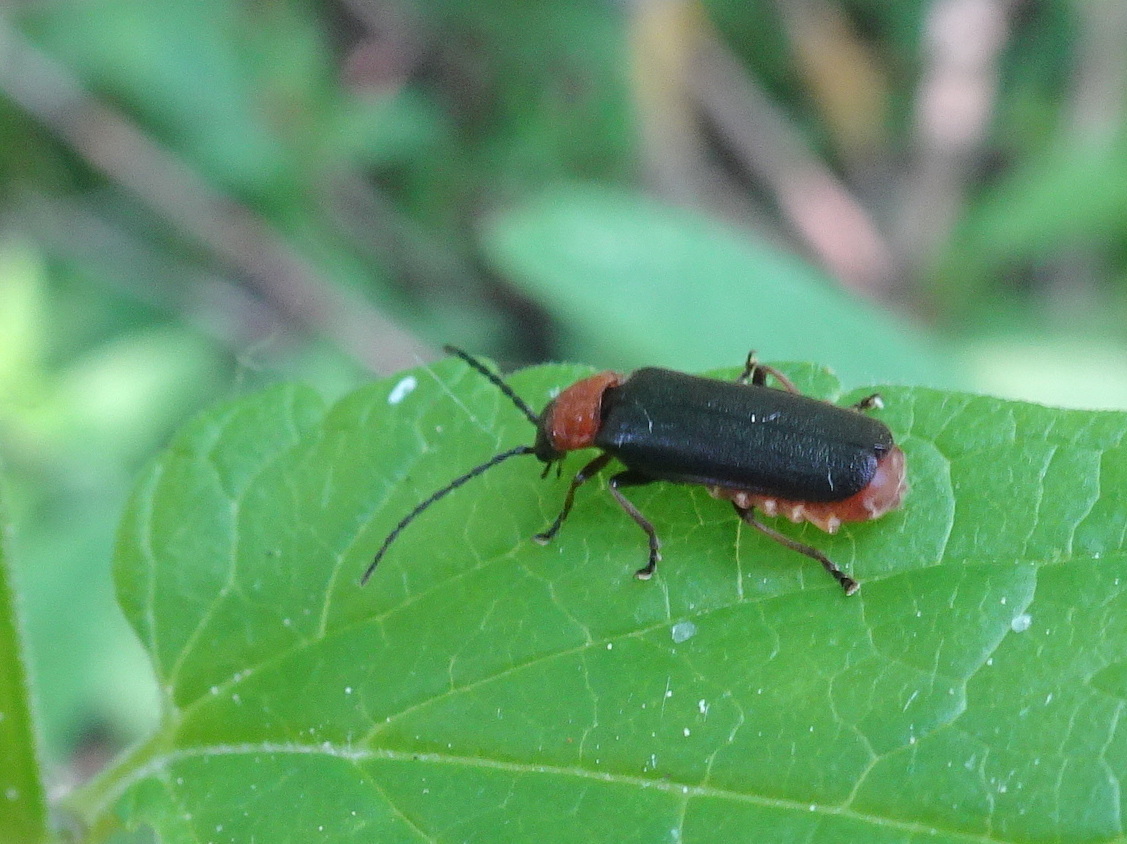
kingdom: Animalia
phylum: Arthropoda
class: Insecta
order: Coleoptera
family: Cantharidae
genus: Crudosilis
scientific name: Crudosilis ruficollis
